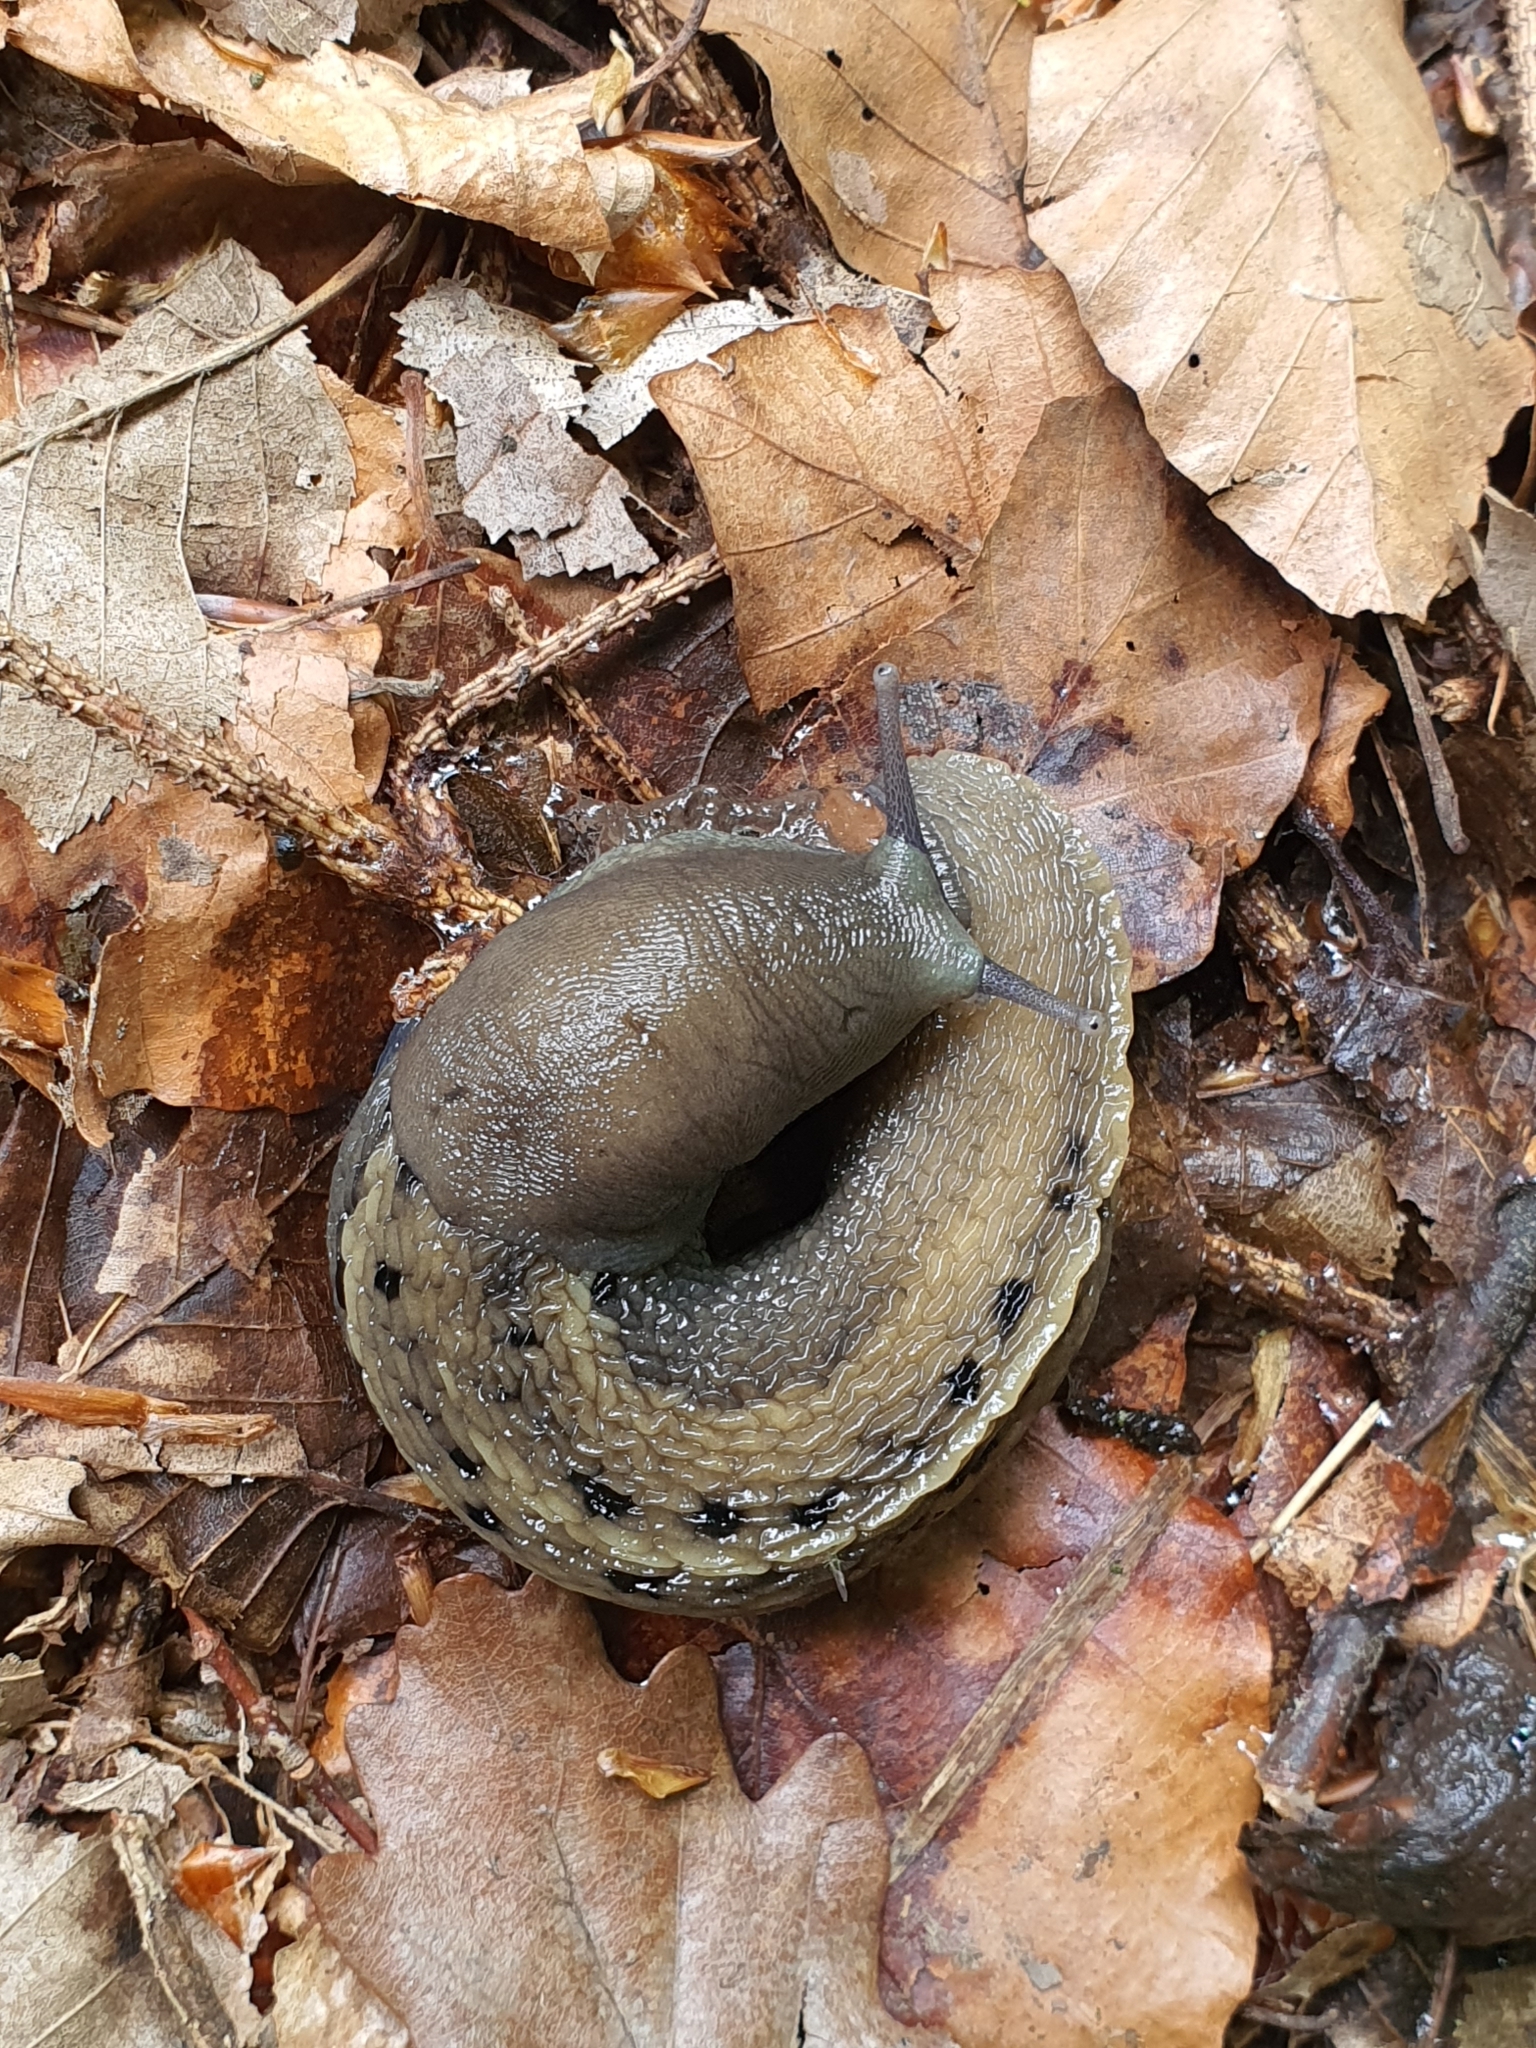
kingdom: Animalia
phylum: Mollusca
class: Gastropoda
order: Stylommatophora
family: Limacidae
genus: Limax
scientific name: Limax cinereoniger
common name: Ash-black slug
